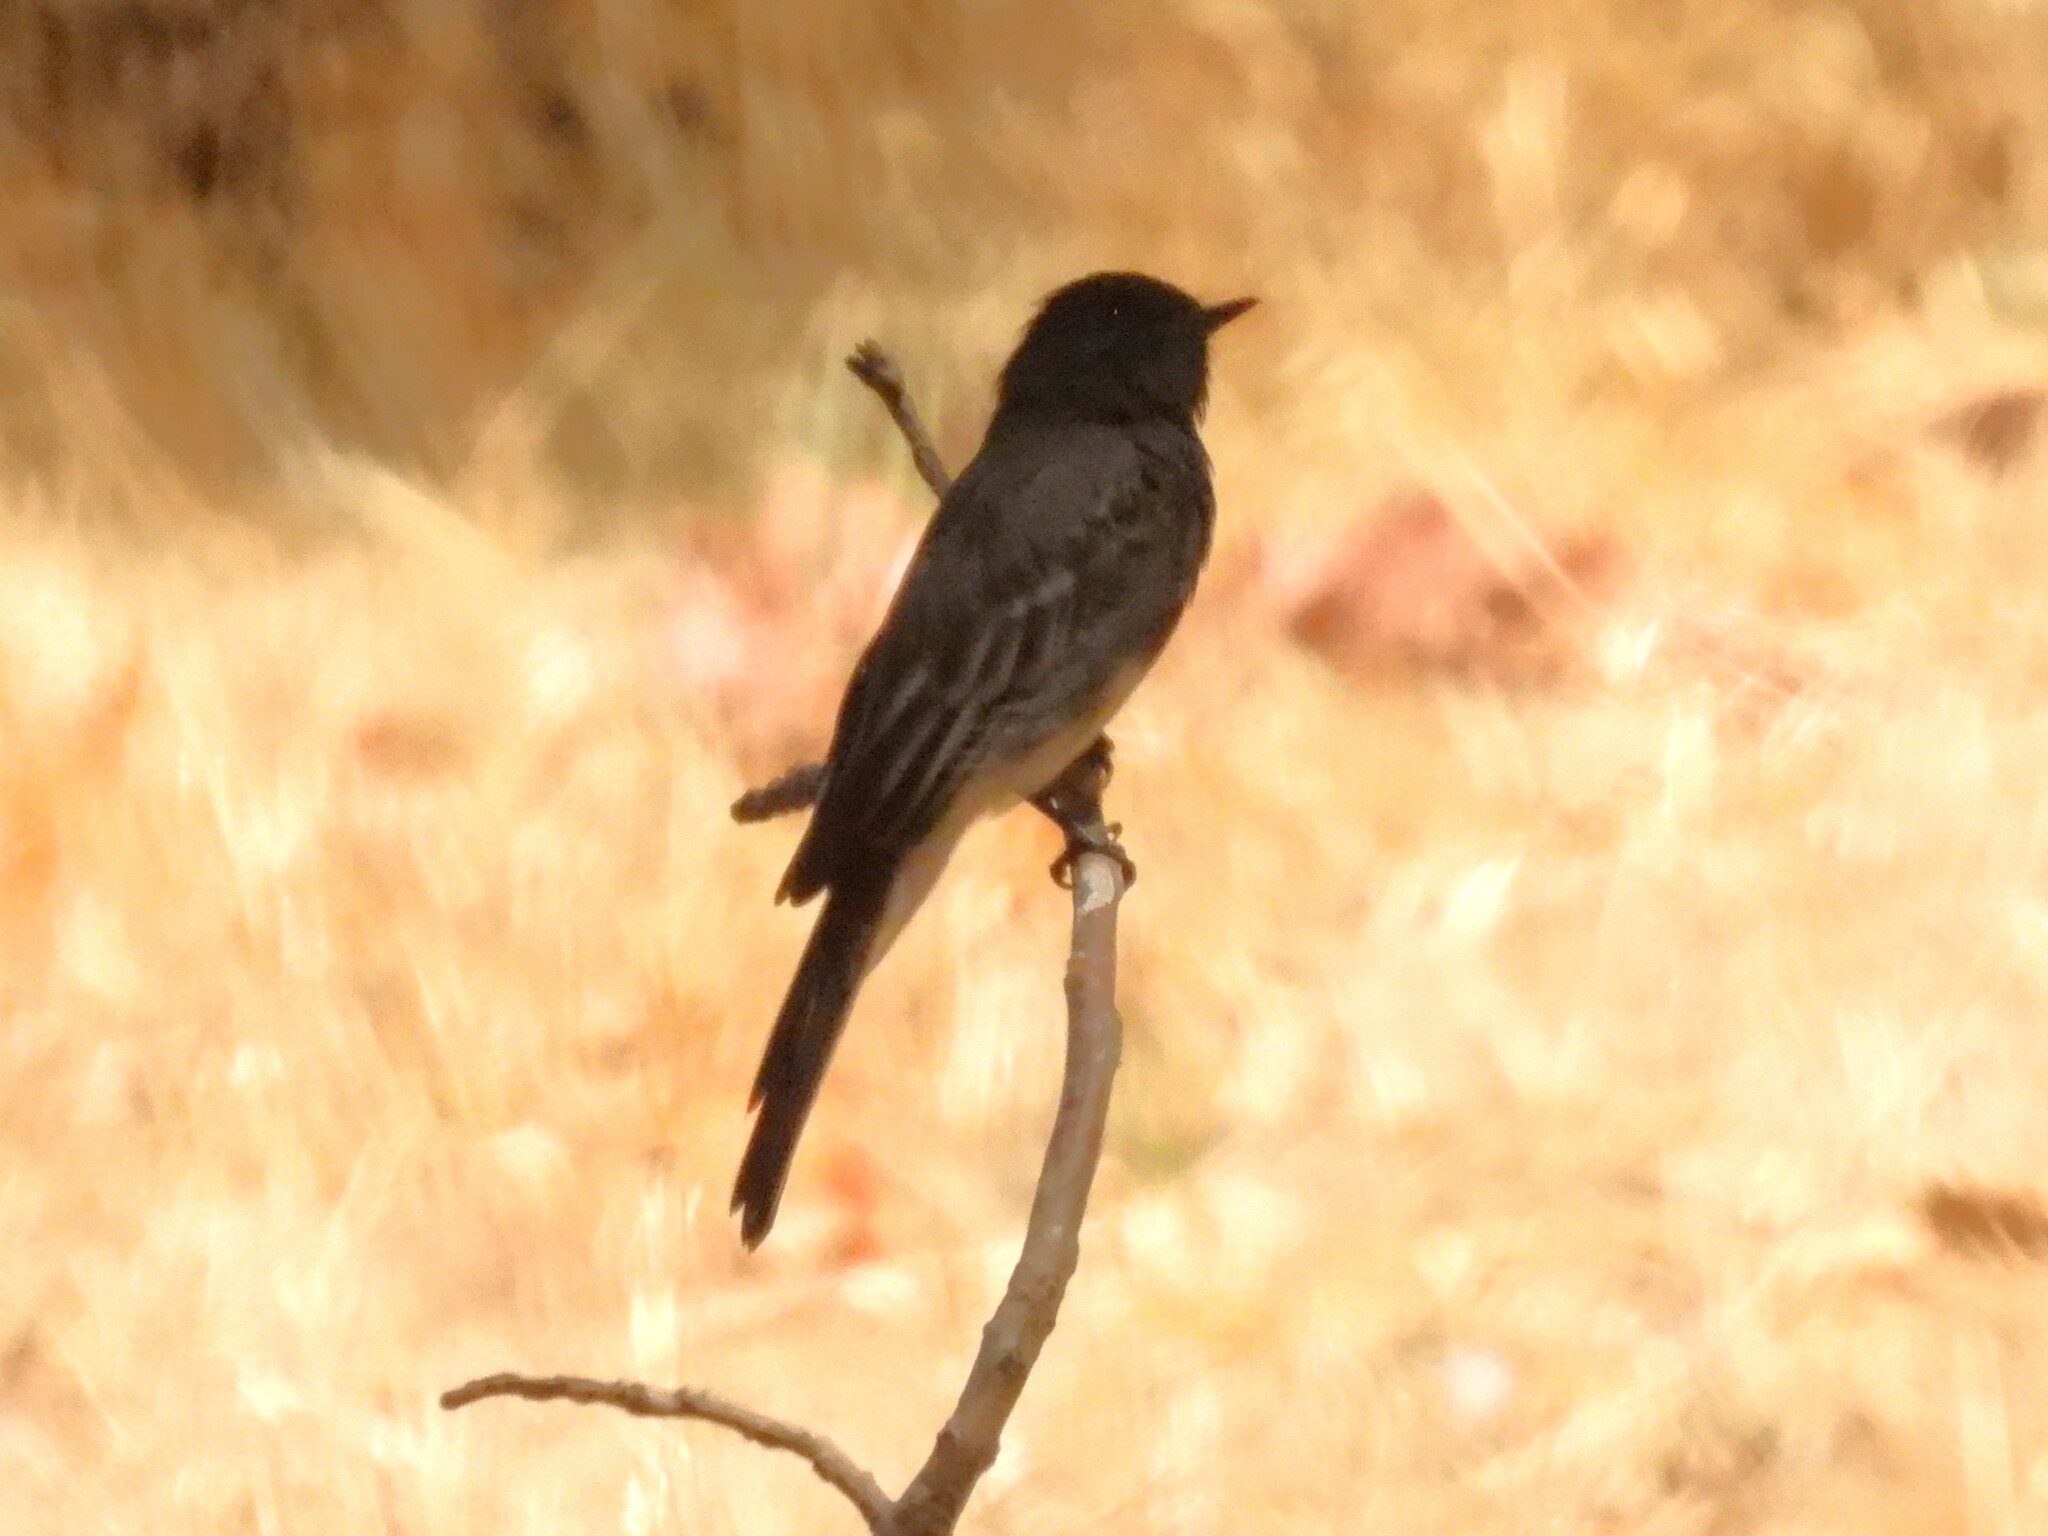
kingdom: Animalia
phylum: Chordata
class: Aves
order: Passeriformes
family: Tyrannidae
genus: Sayornis
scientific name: Sayornis nigricans
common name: Black phoebe
